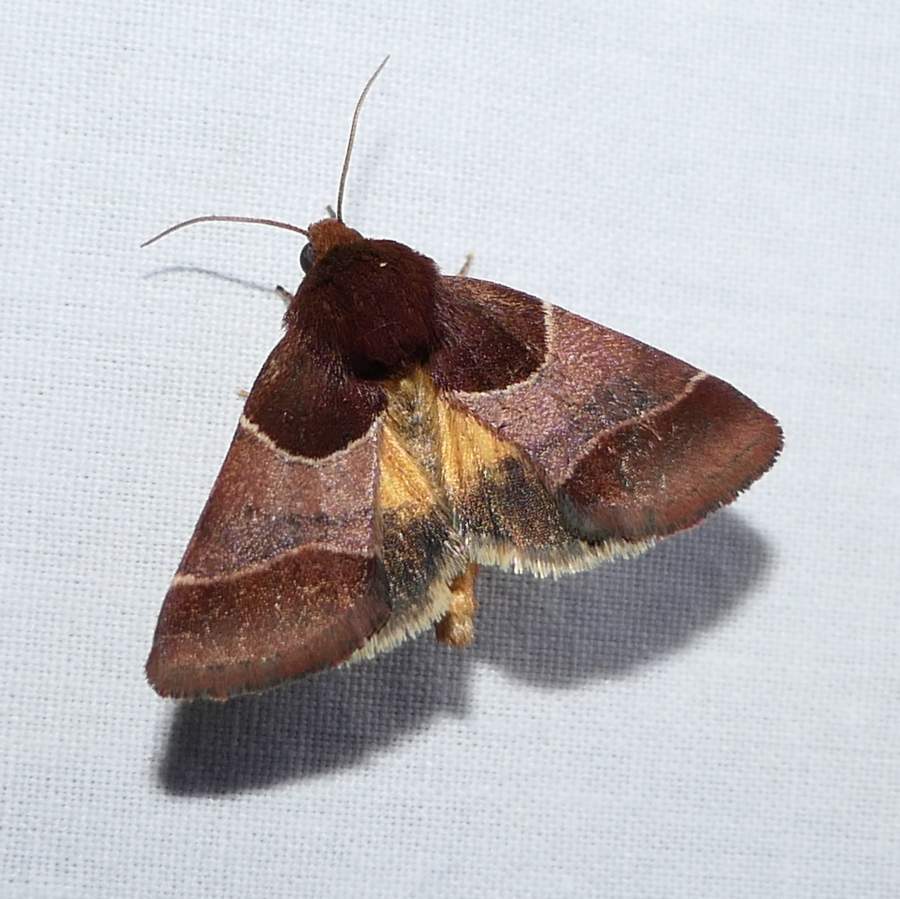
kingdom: Animalia
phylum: Arthropoda
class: Insecta
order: Lepidoptera
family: Noctuidae
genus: Schinia
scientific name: Schinia arcigera
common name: Arcigera flower moth
